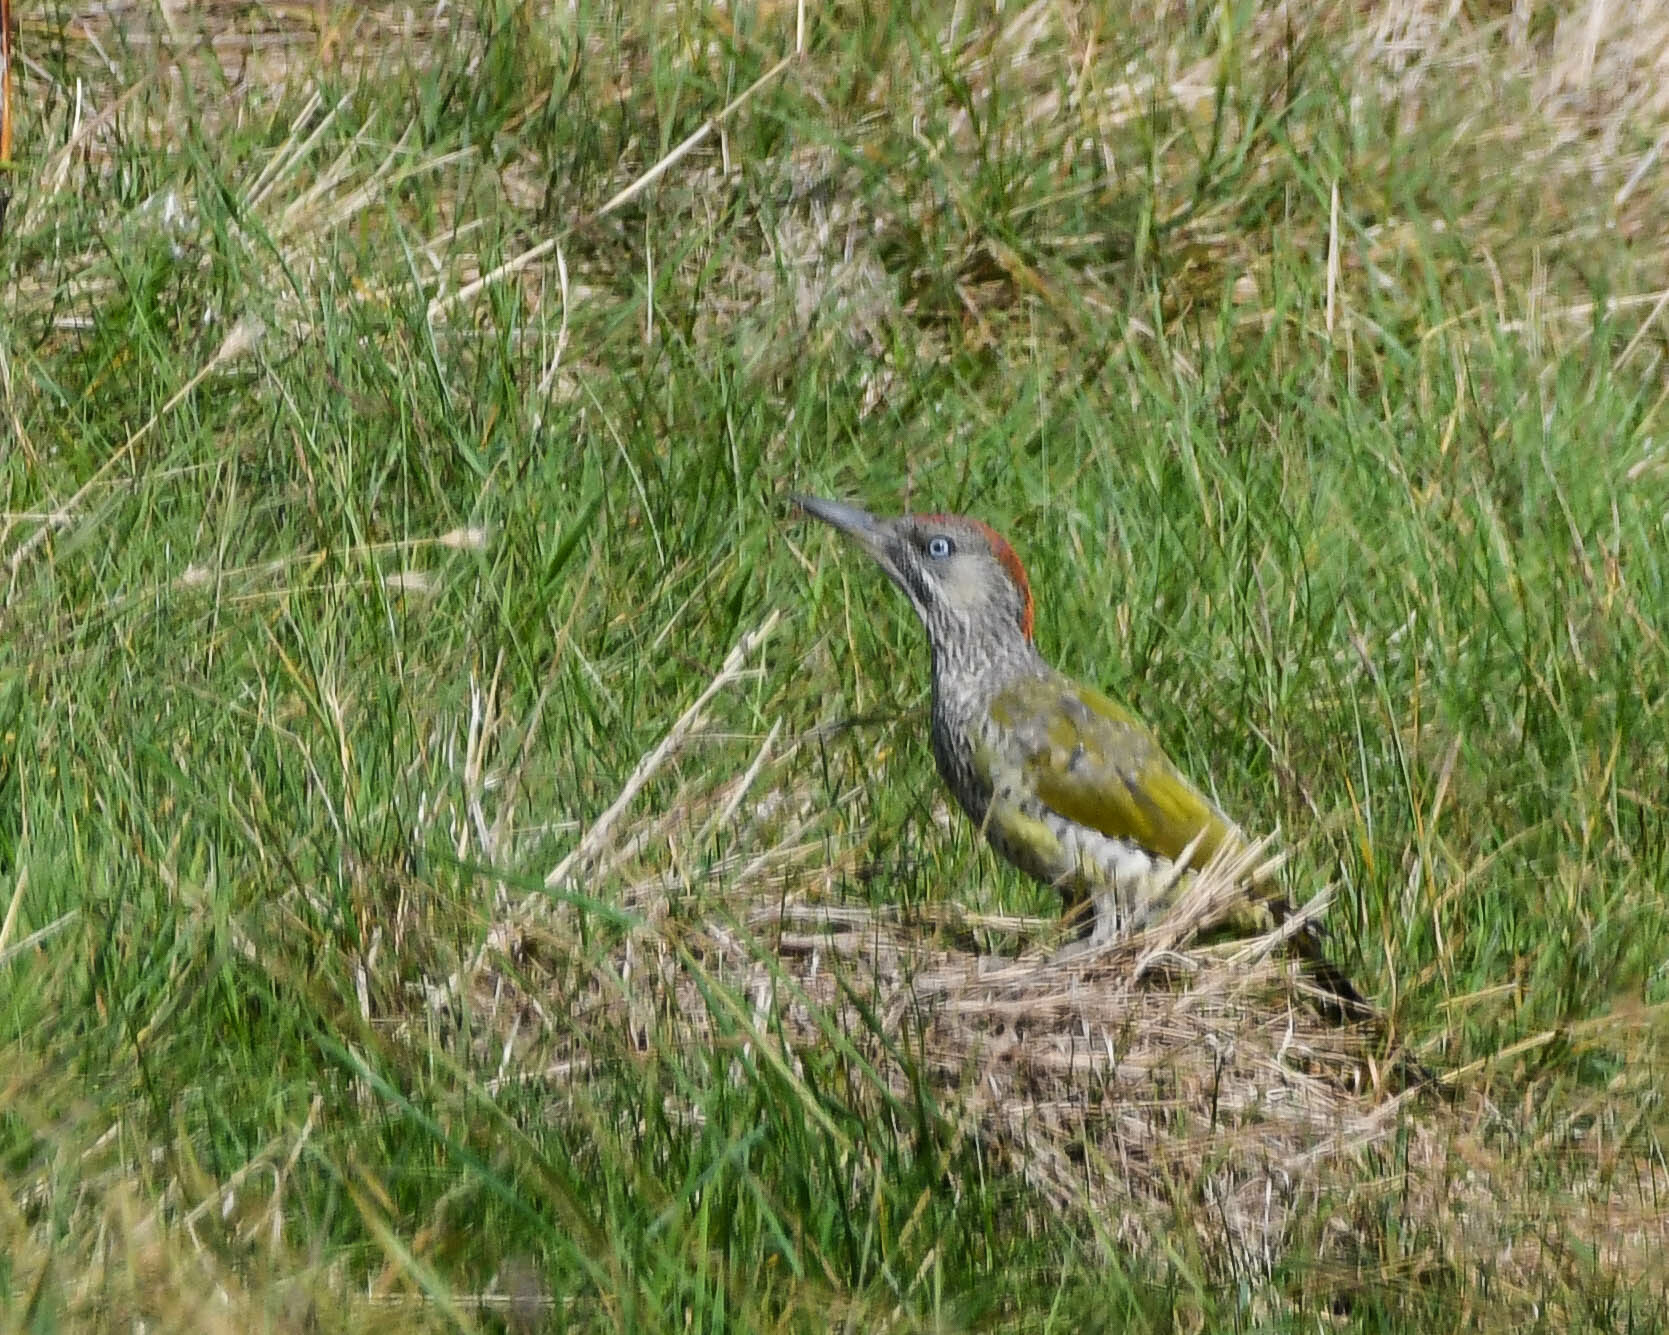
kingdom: Animalia
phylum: Chordata
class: Aves
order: Piciformes
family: Picidae
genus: Picus
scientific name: Picus viridis
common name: European green woodpecker
